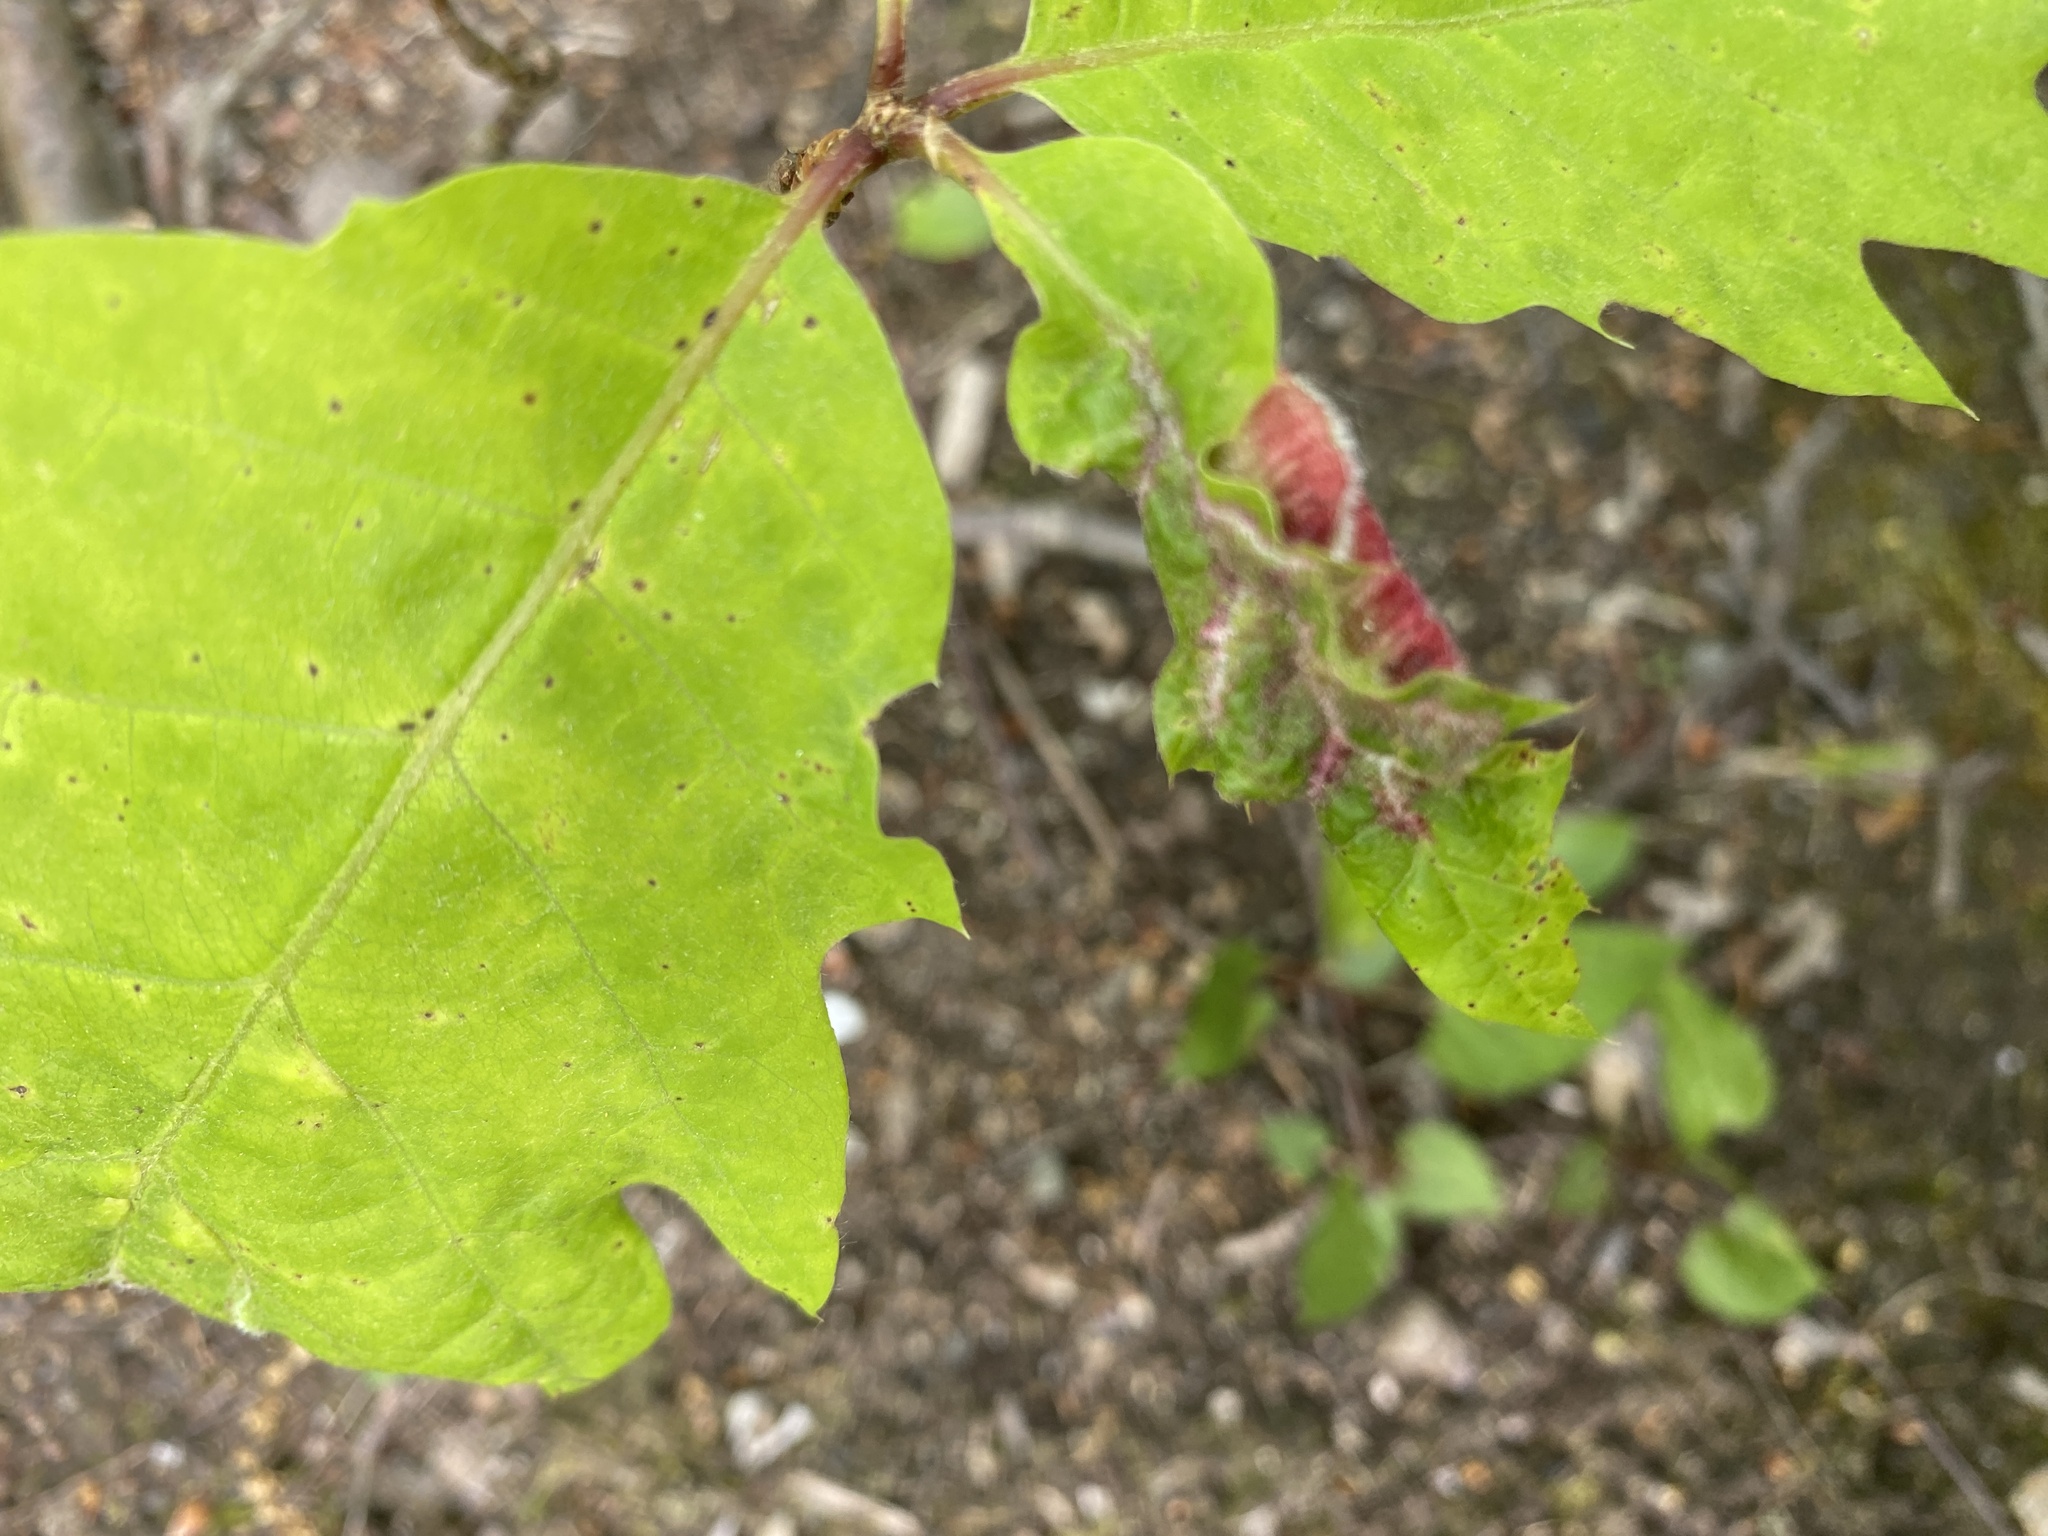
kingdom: Animalia
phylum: Arthropoda
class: Insecta
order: Diptera
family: Cecidomyiidae
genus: Macrodiplosis
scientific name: Macrodiplosis niveipila
